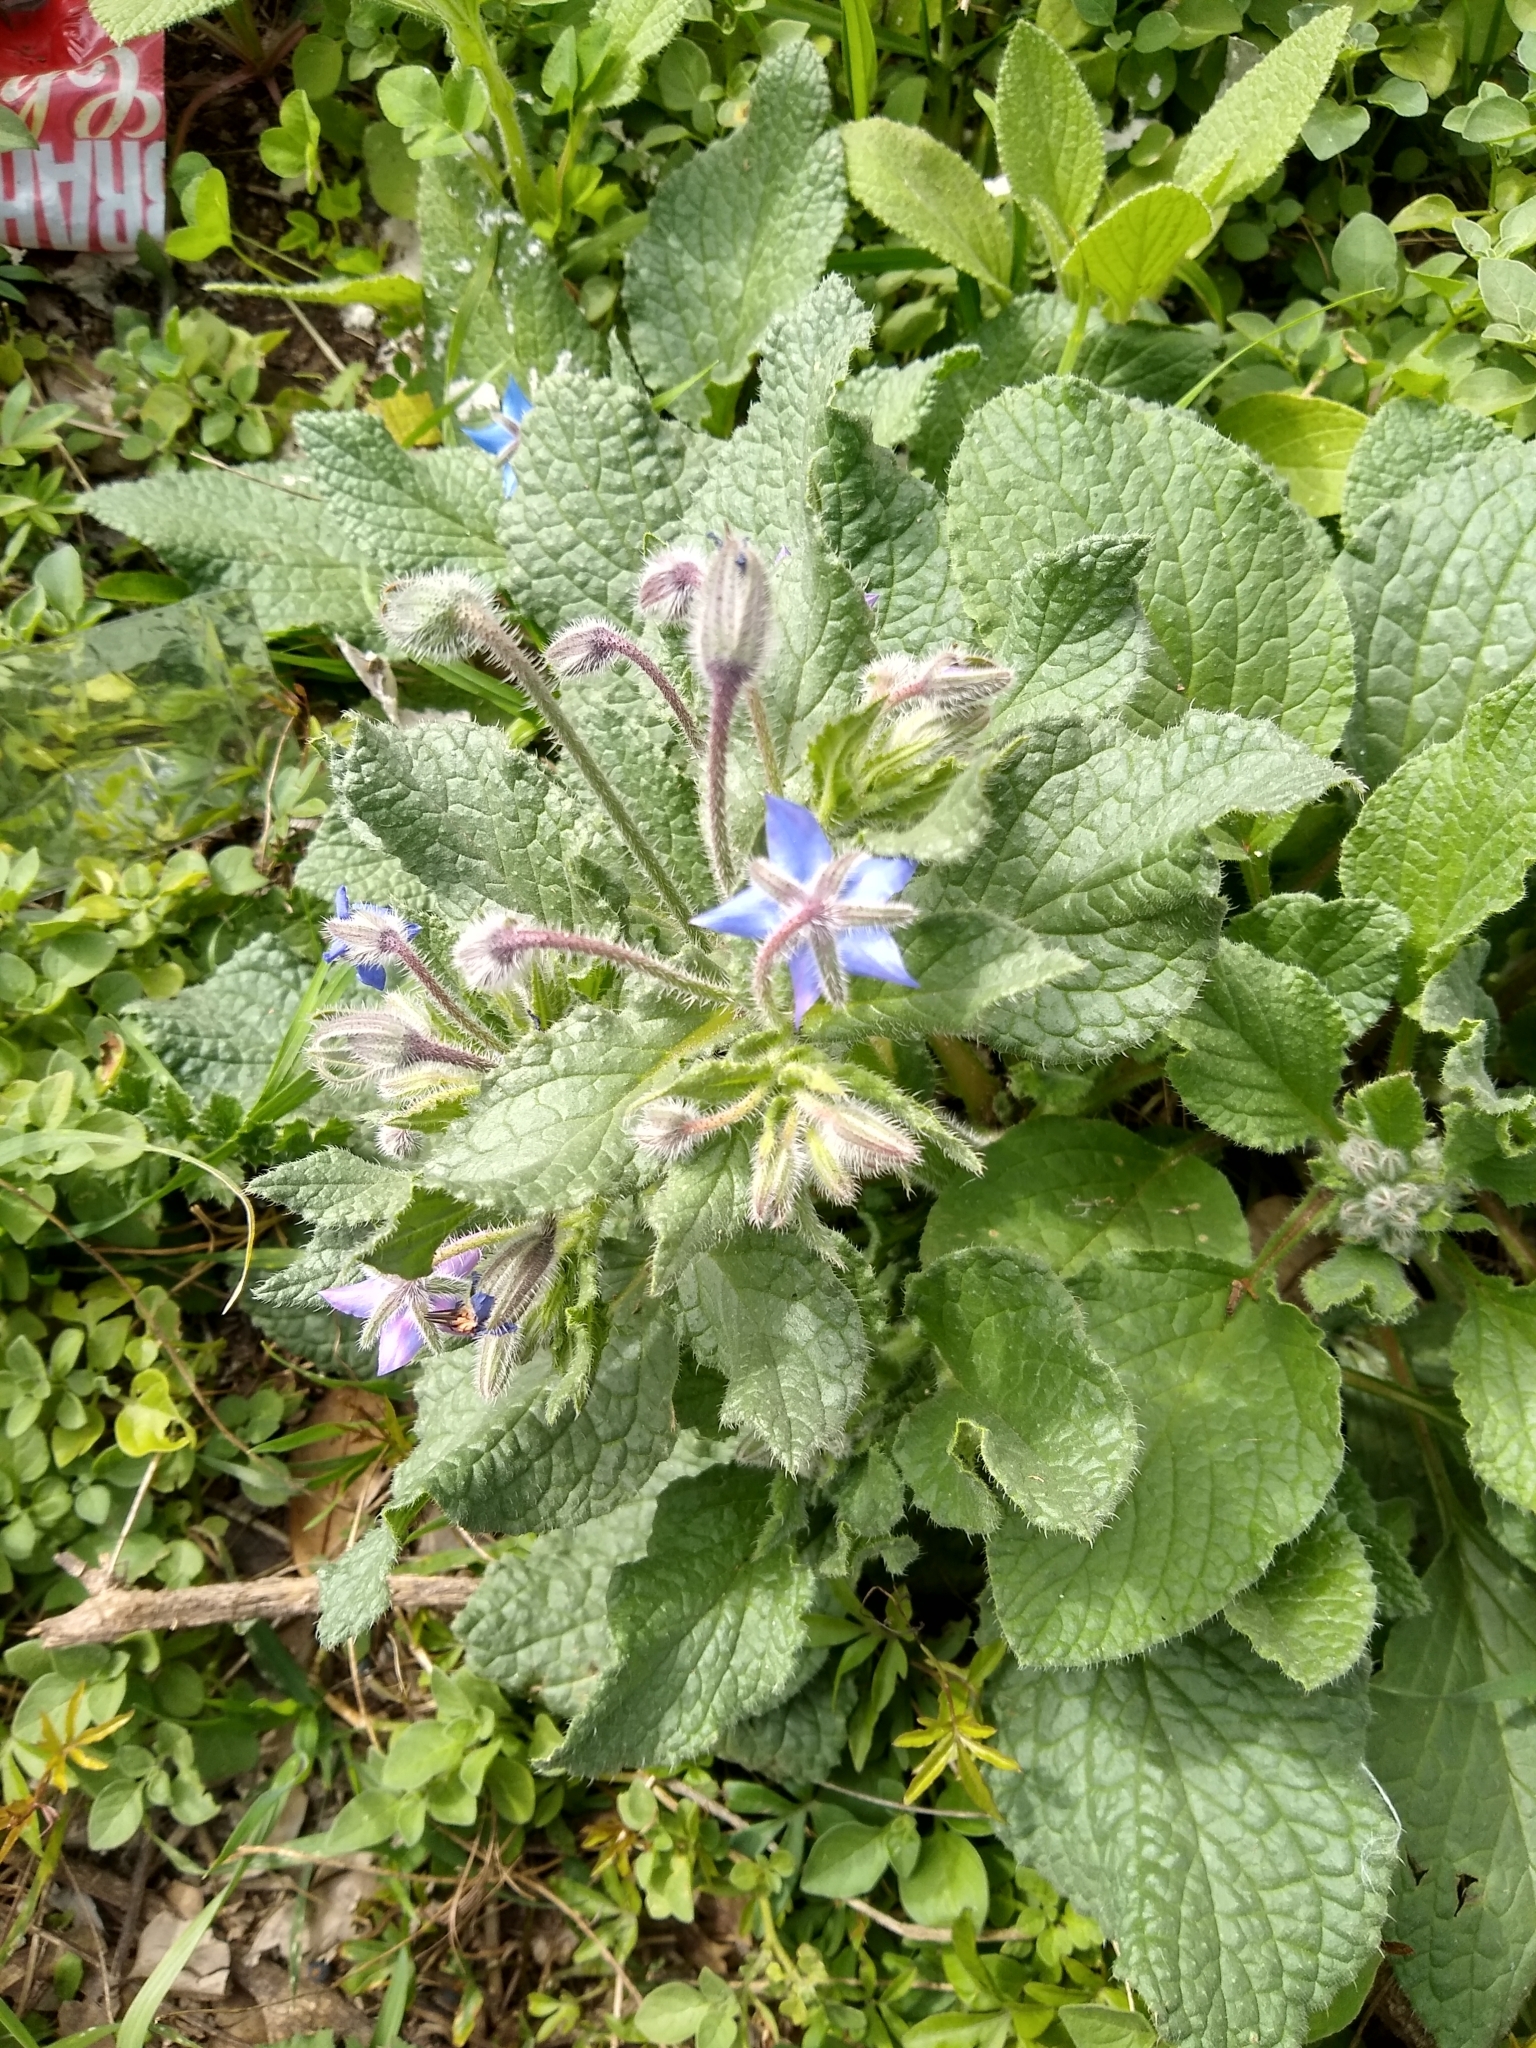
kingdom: Plantae
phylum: Tracheophyta
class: Magnoliopsida
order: Boraginales
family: Boraginaceae
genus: Borago
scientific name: Borago officinalis
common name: Borage
